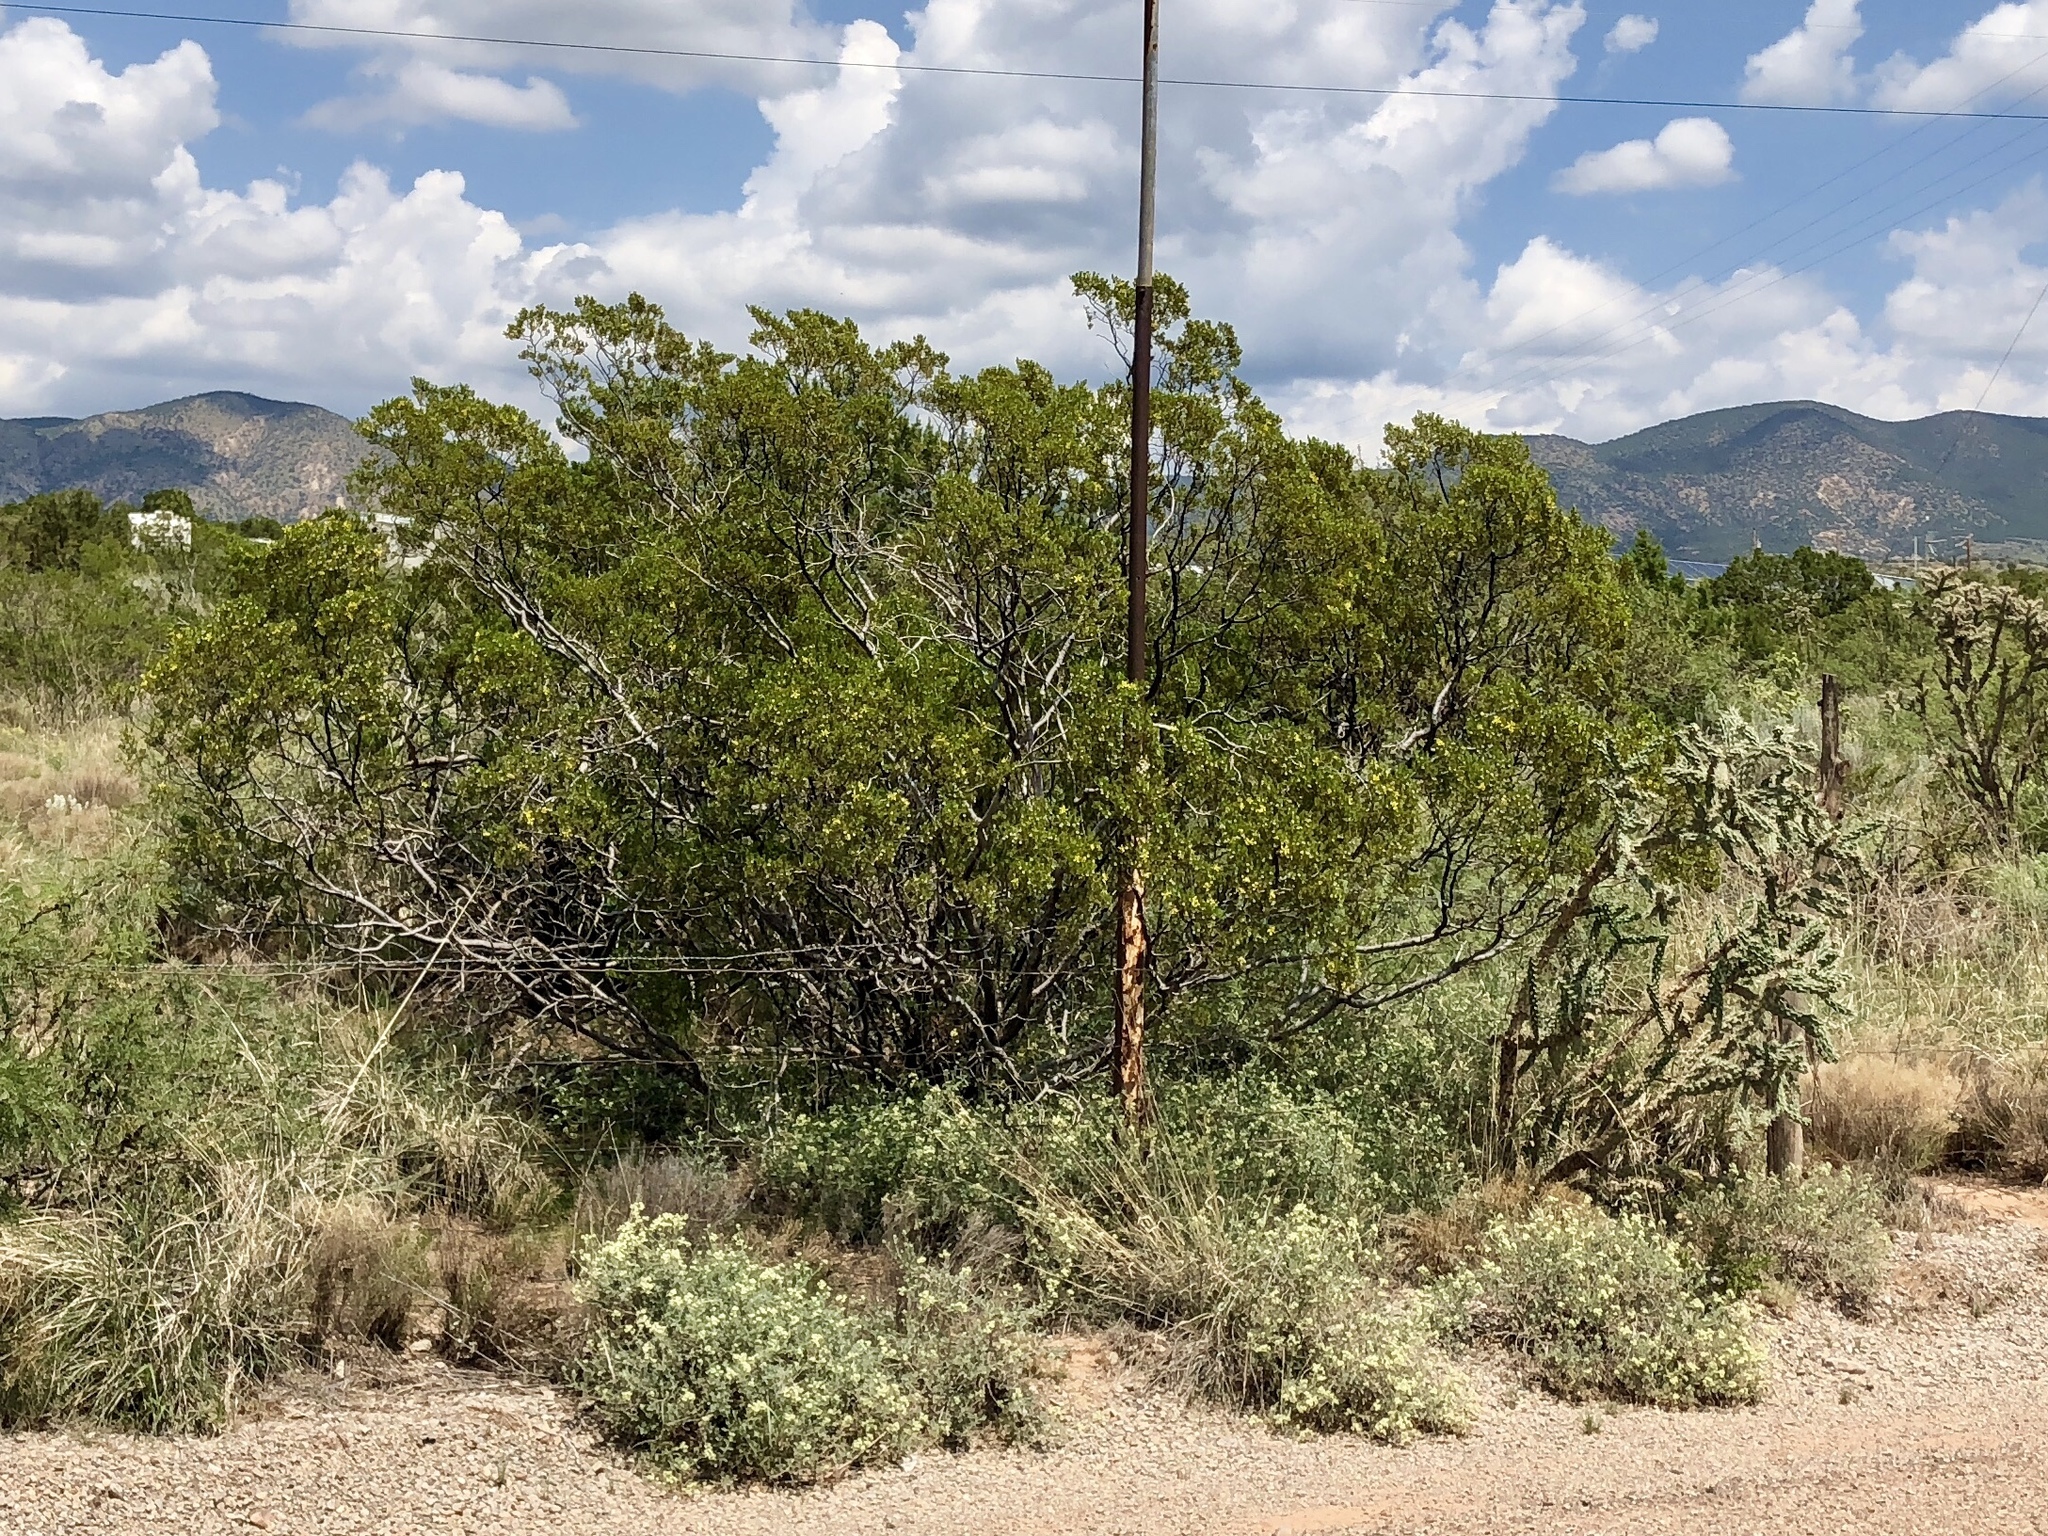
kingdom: Plantae
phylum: Tracheophyta
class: Magnoliopsida
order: Zygophyllales
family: Zygophyllaceae
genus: Larrea
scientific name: Larrea tridentata
